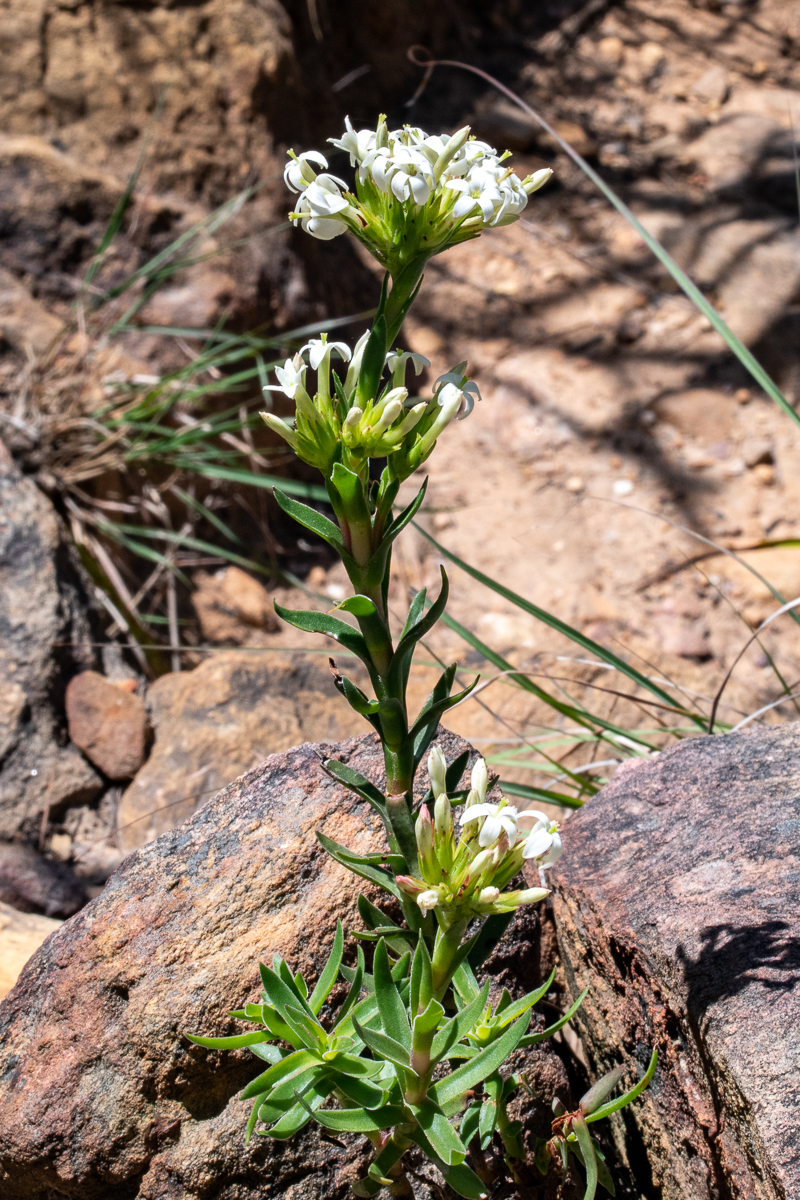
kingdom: Plantae
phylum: Tracheophyta
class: Magnoliopsida
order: Saxifragales
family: Crassulaceae
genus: Crassula
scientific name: Crassula fascicularis
